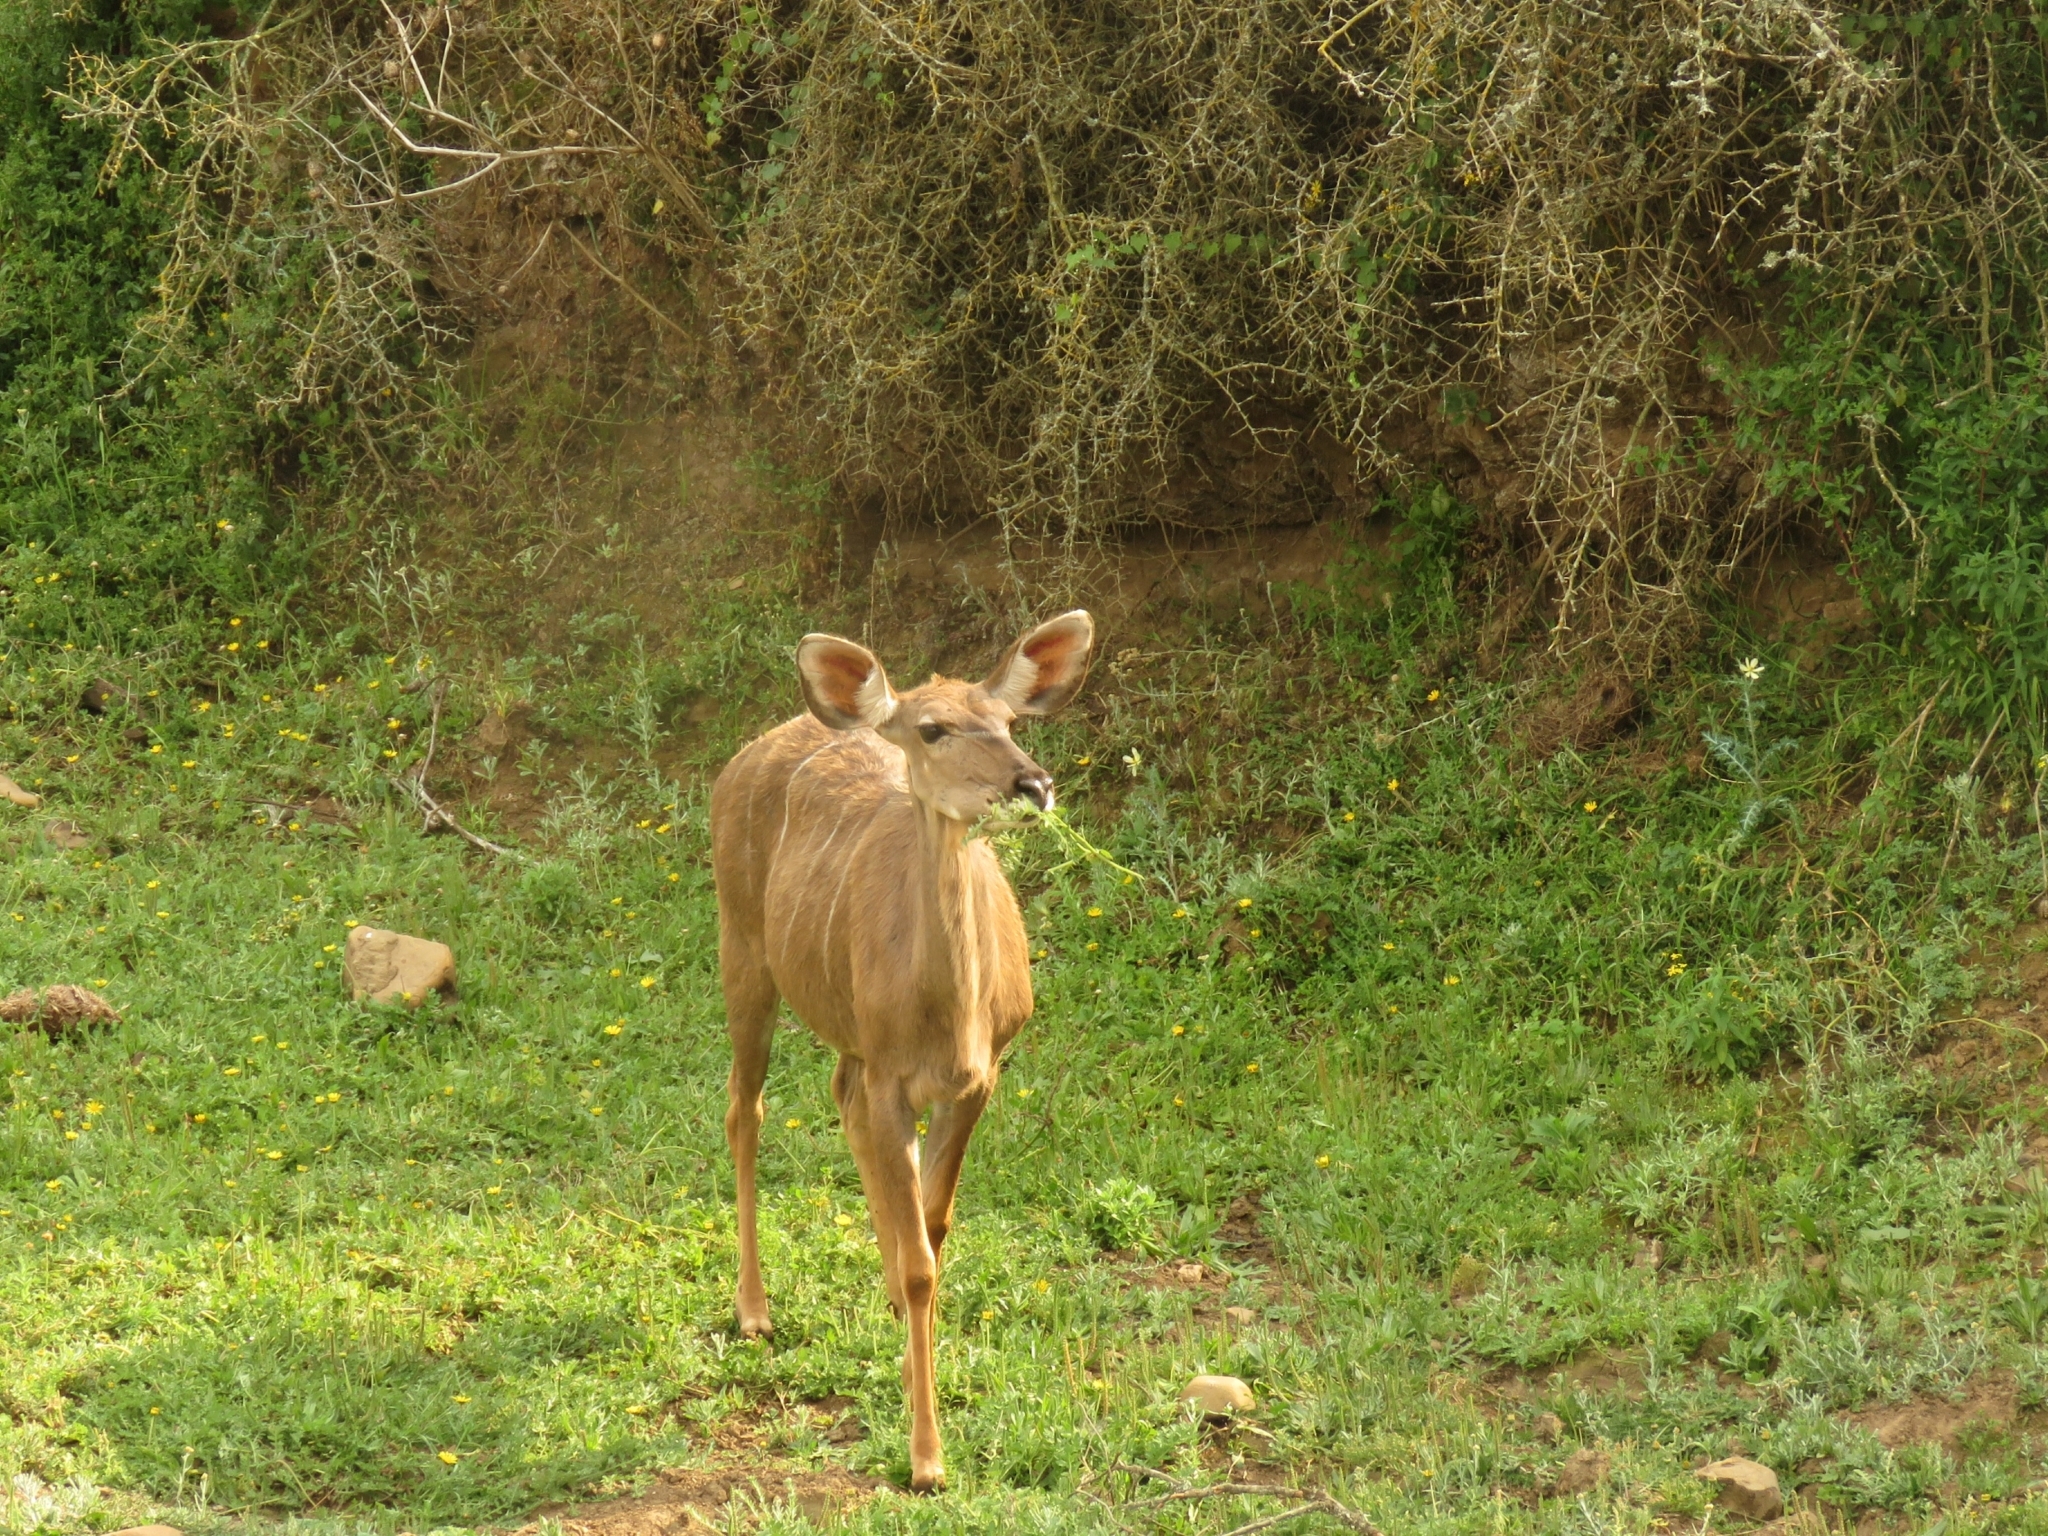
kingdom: Animalia
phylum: Chordata
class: Mammalia
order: Artiodactyla
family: Bovidae
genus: Tragelaphus
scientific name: Tragelaphus strepsiceros
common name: Greater kudu
